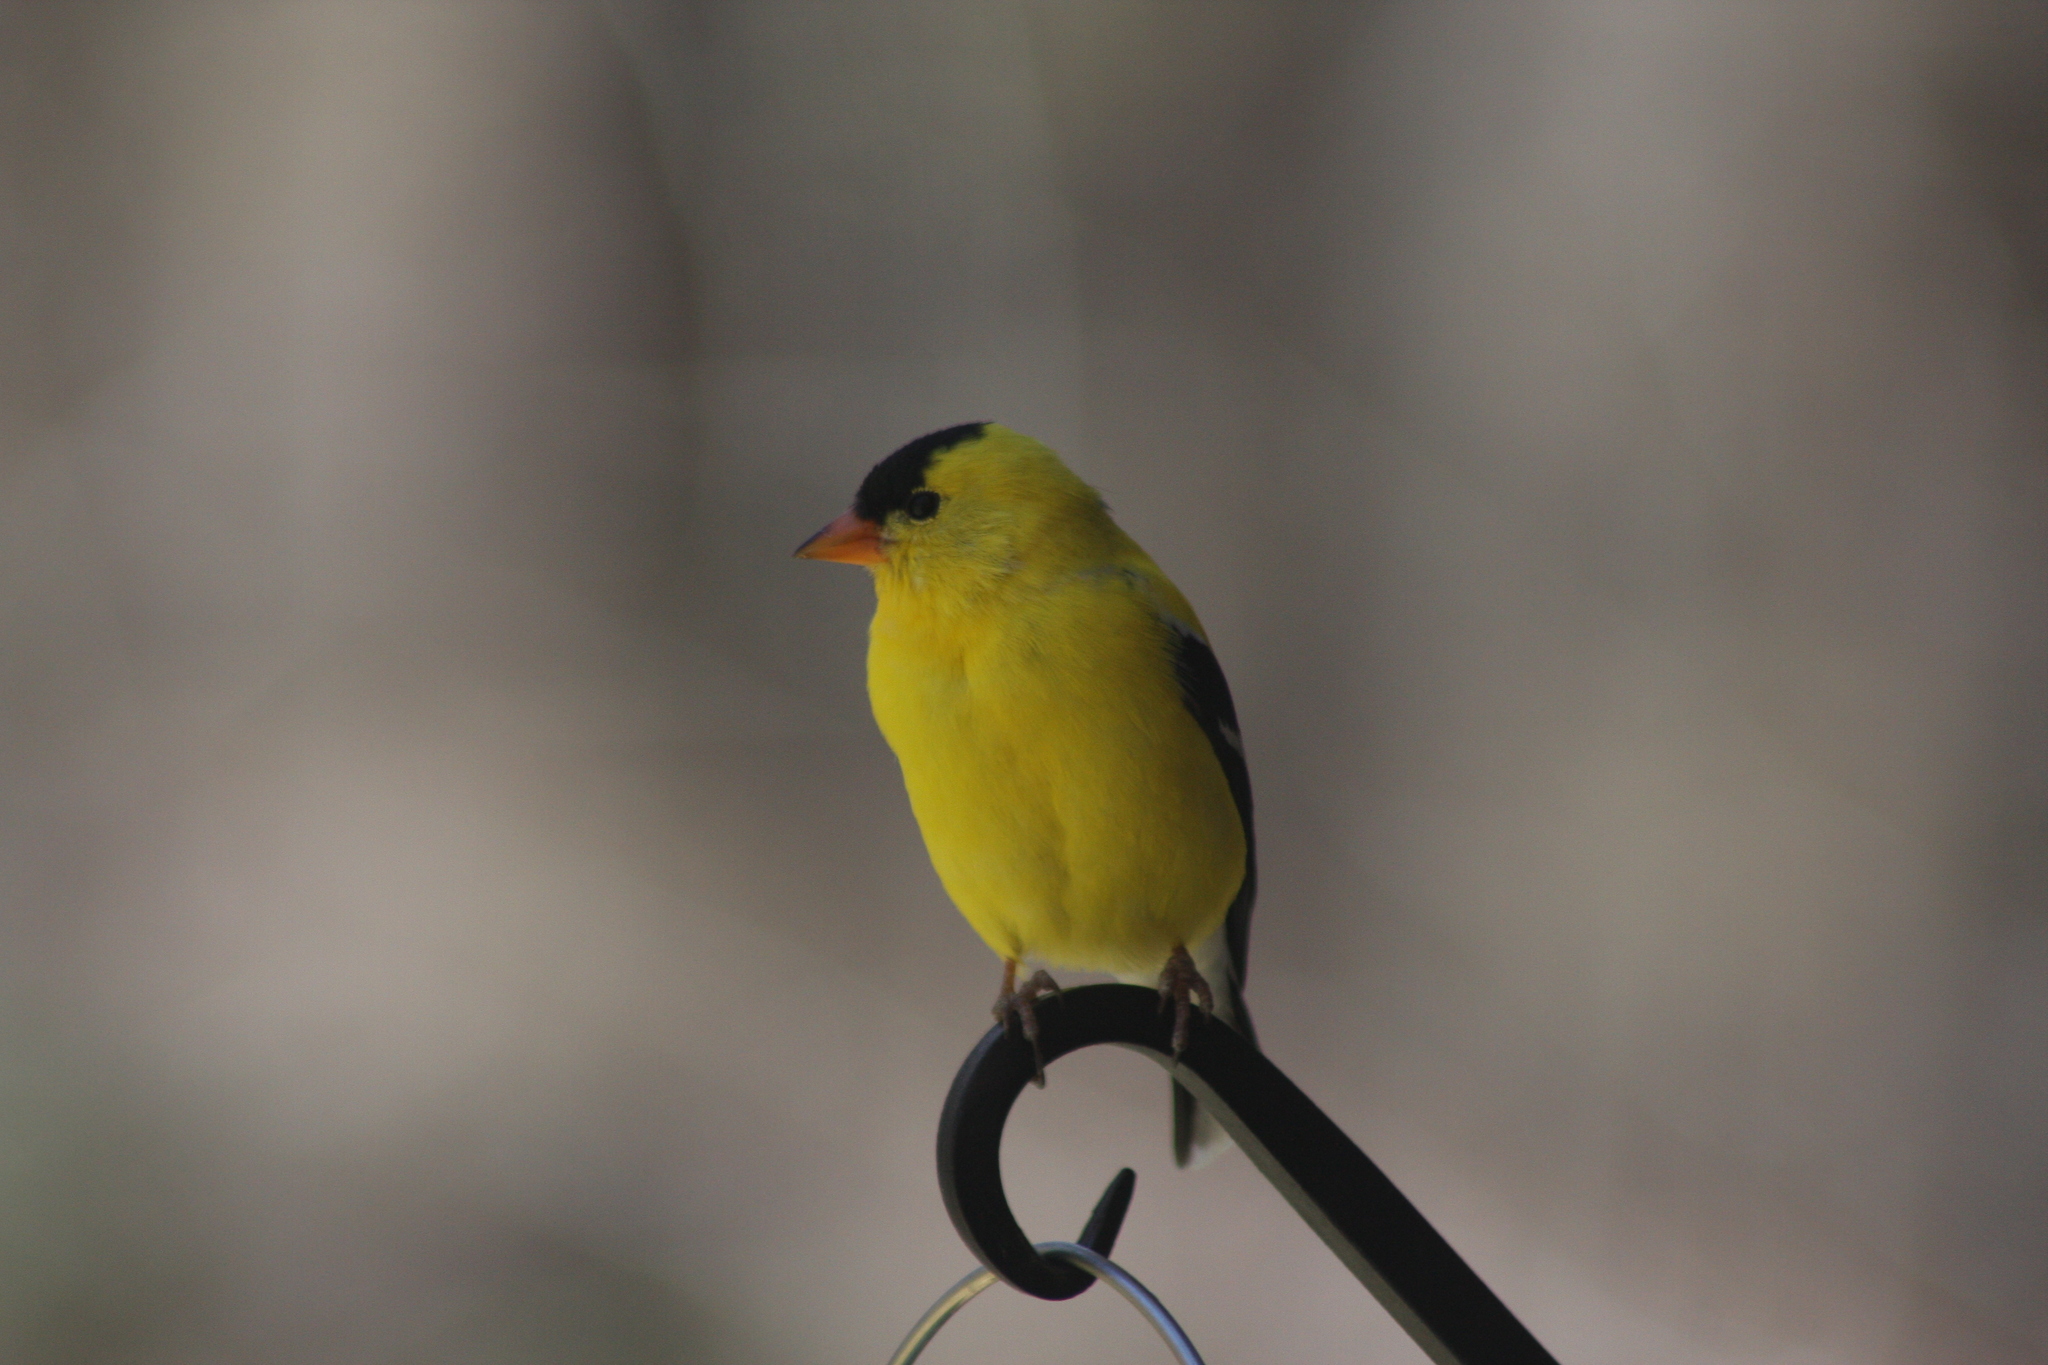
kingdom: Animalia
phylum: Chordata
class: Aves
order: Passeriformes
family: Fringillidae
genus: Spinus
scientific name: Spinus tristis
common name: American goldfinch
